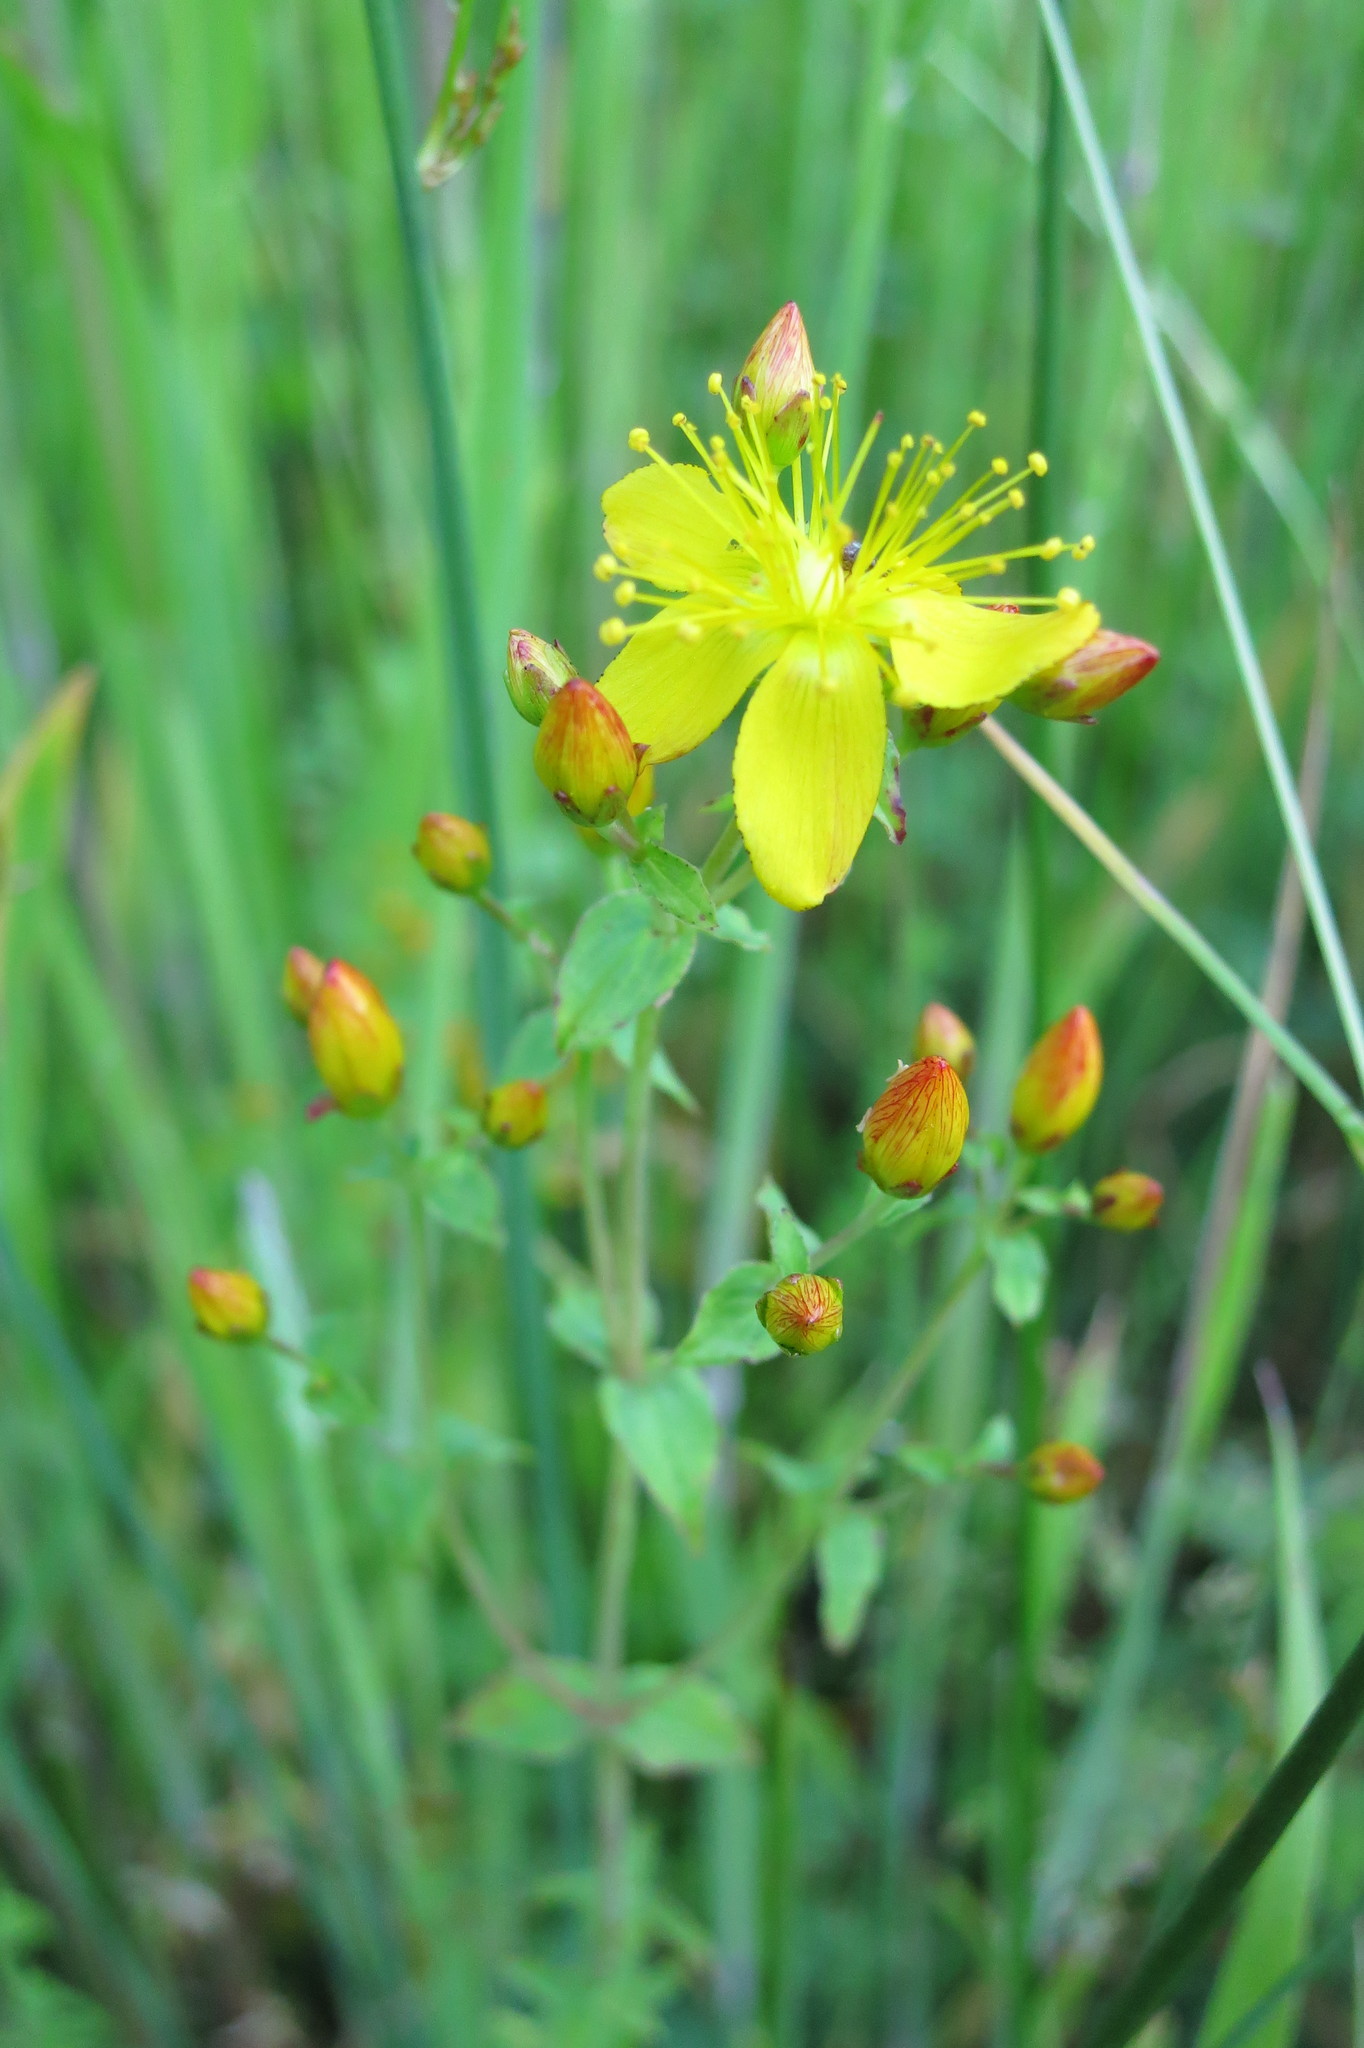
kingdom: Plantae
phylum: Tracheophyta
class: Magnoliopsida
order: Malpighiales
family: Hypericaceae
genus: Hypericum
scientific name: Hypericum scouleri
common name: Scouler's st. john's-wort
